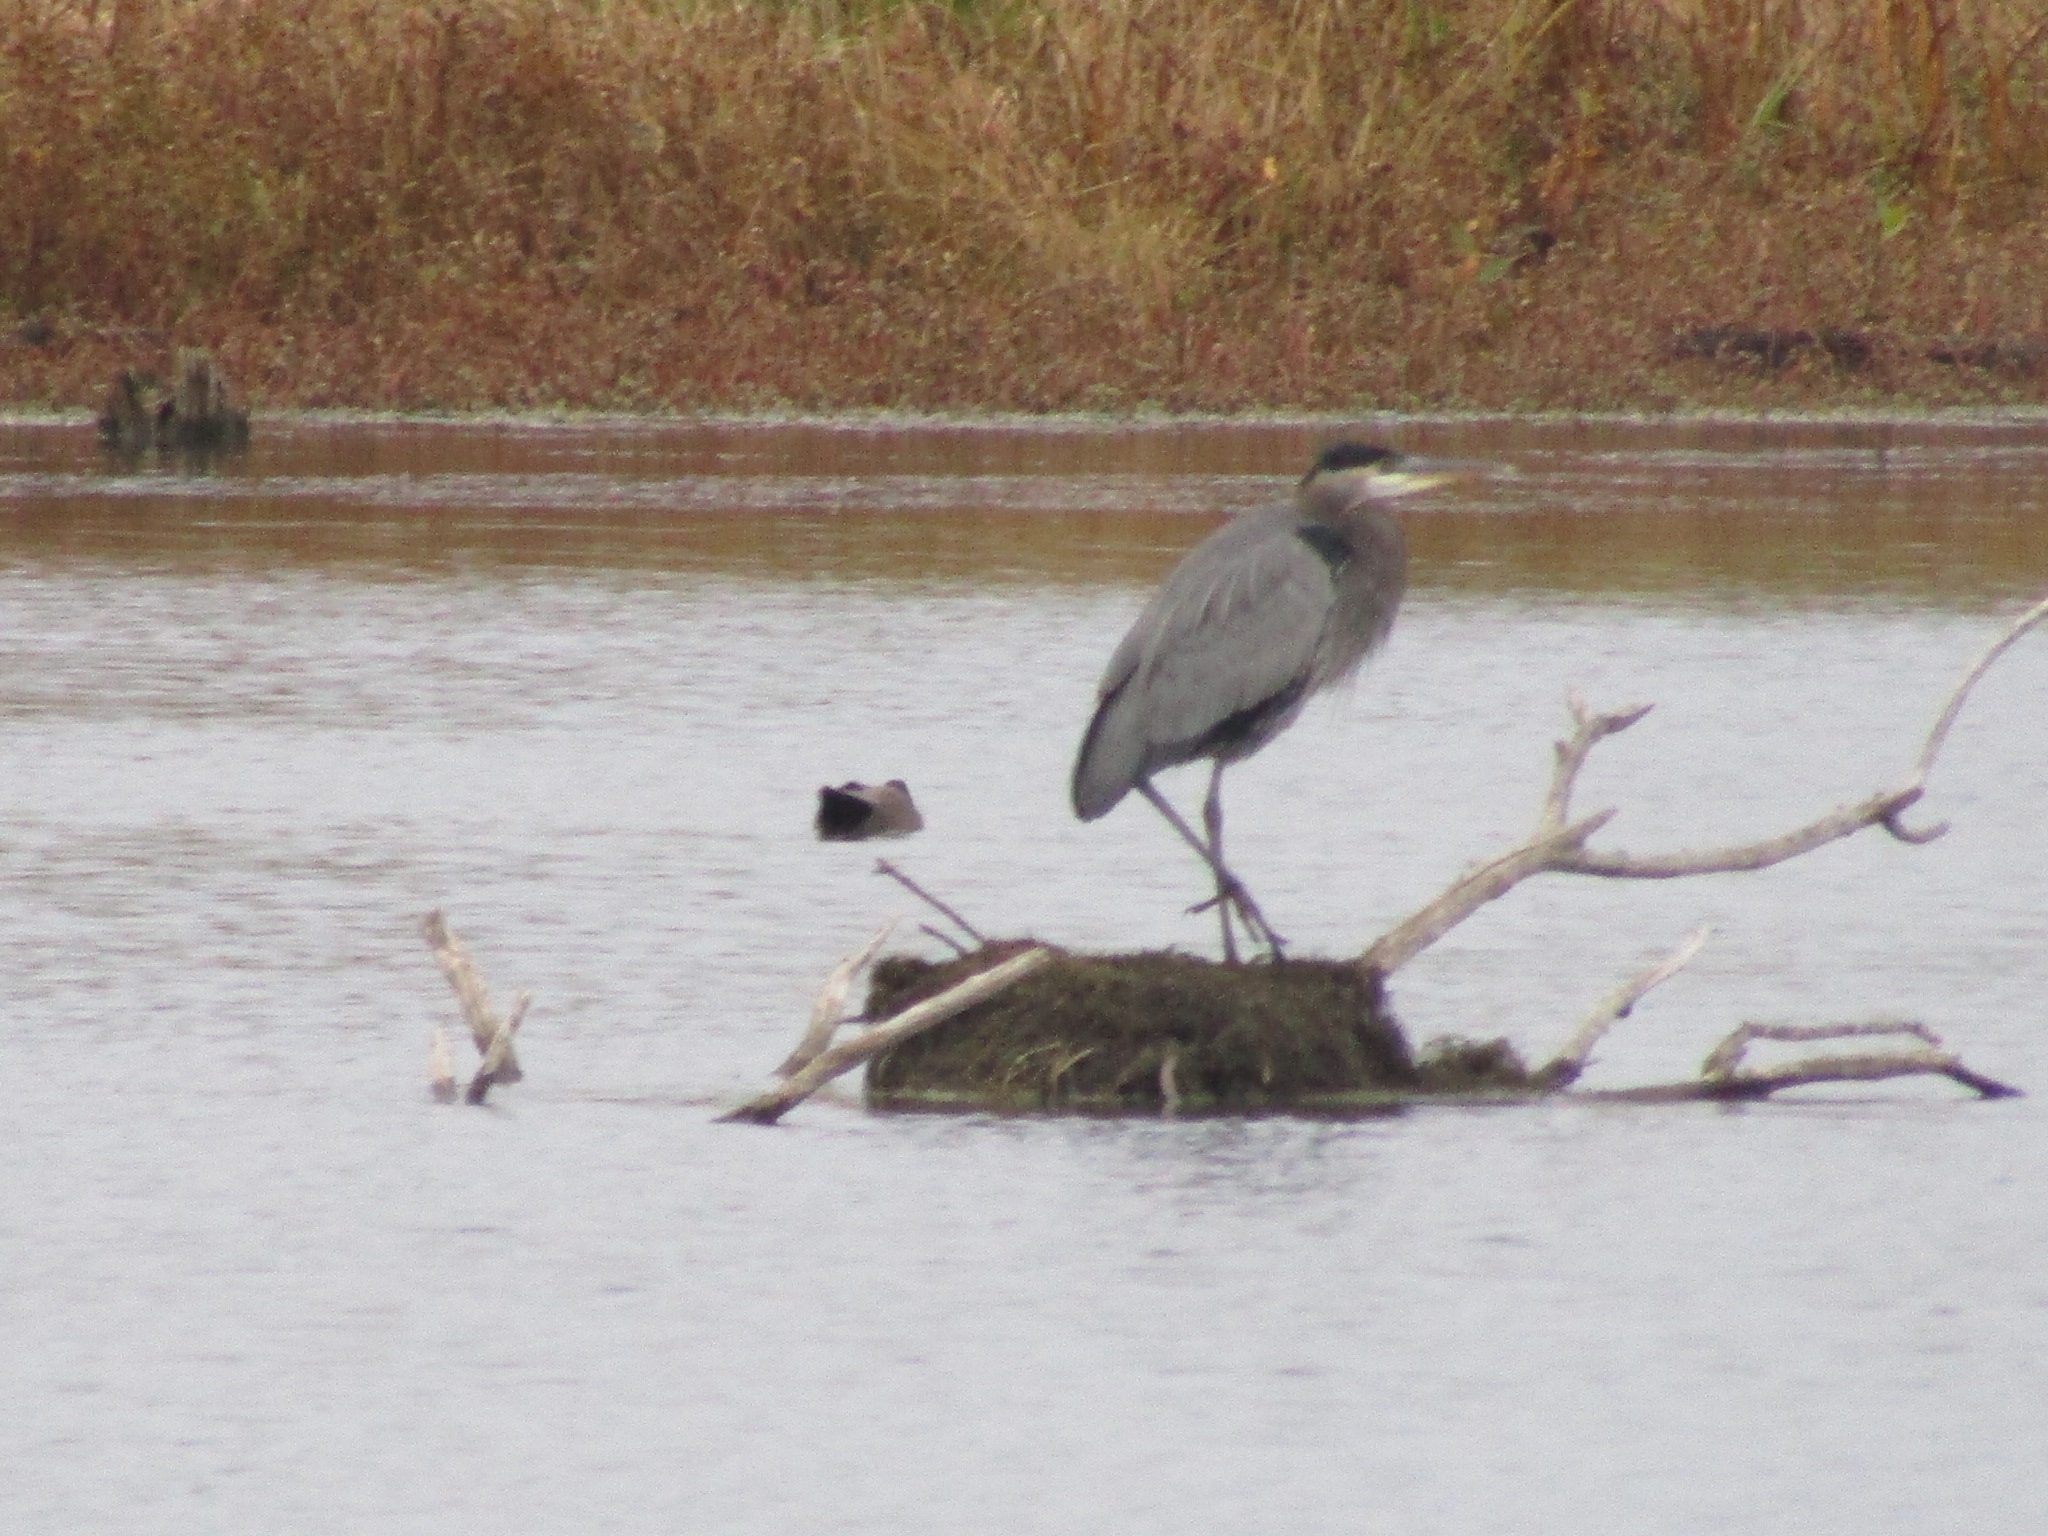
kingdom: Animalia
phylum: Chordata
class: Aves
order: Pelecaniformes
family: Ardeidae
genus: Ardea
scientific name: Ardea herodias
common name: Great blue heron
